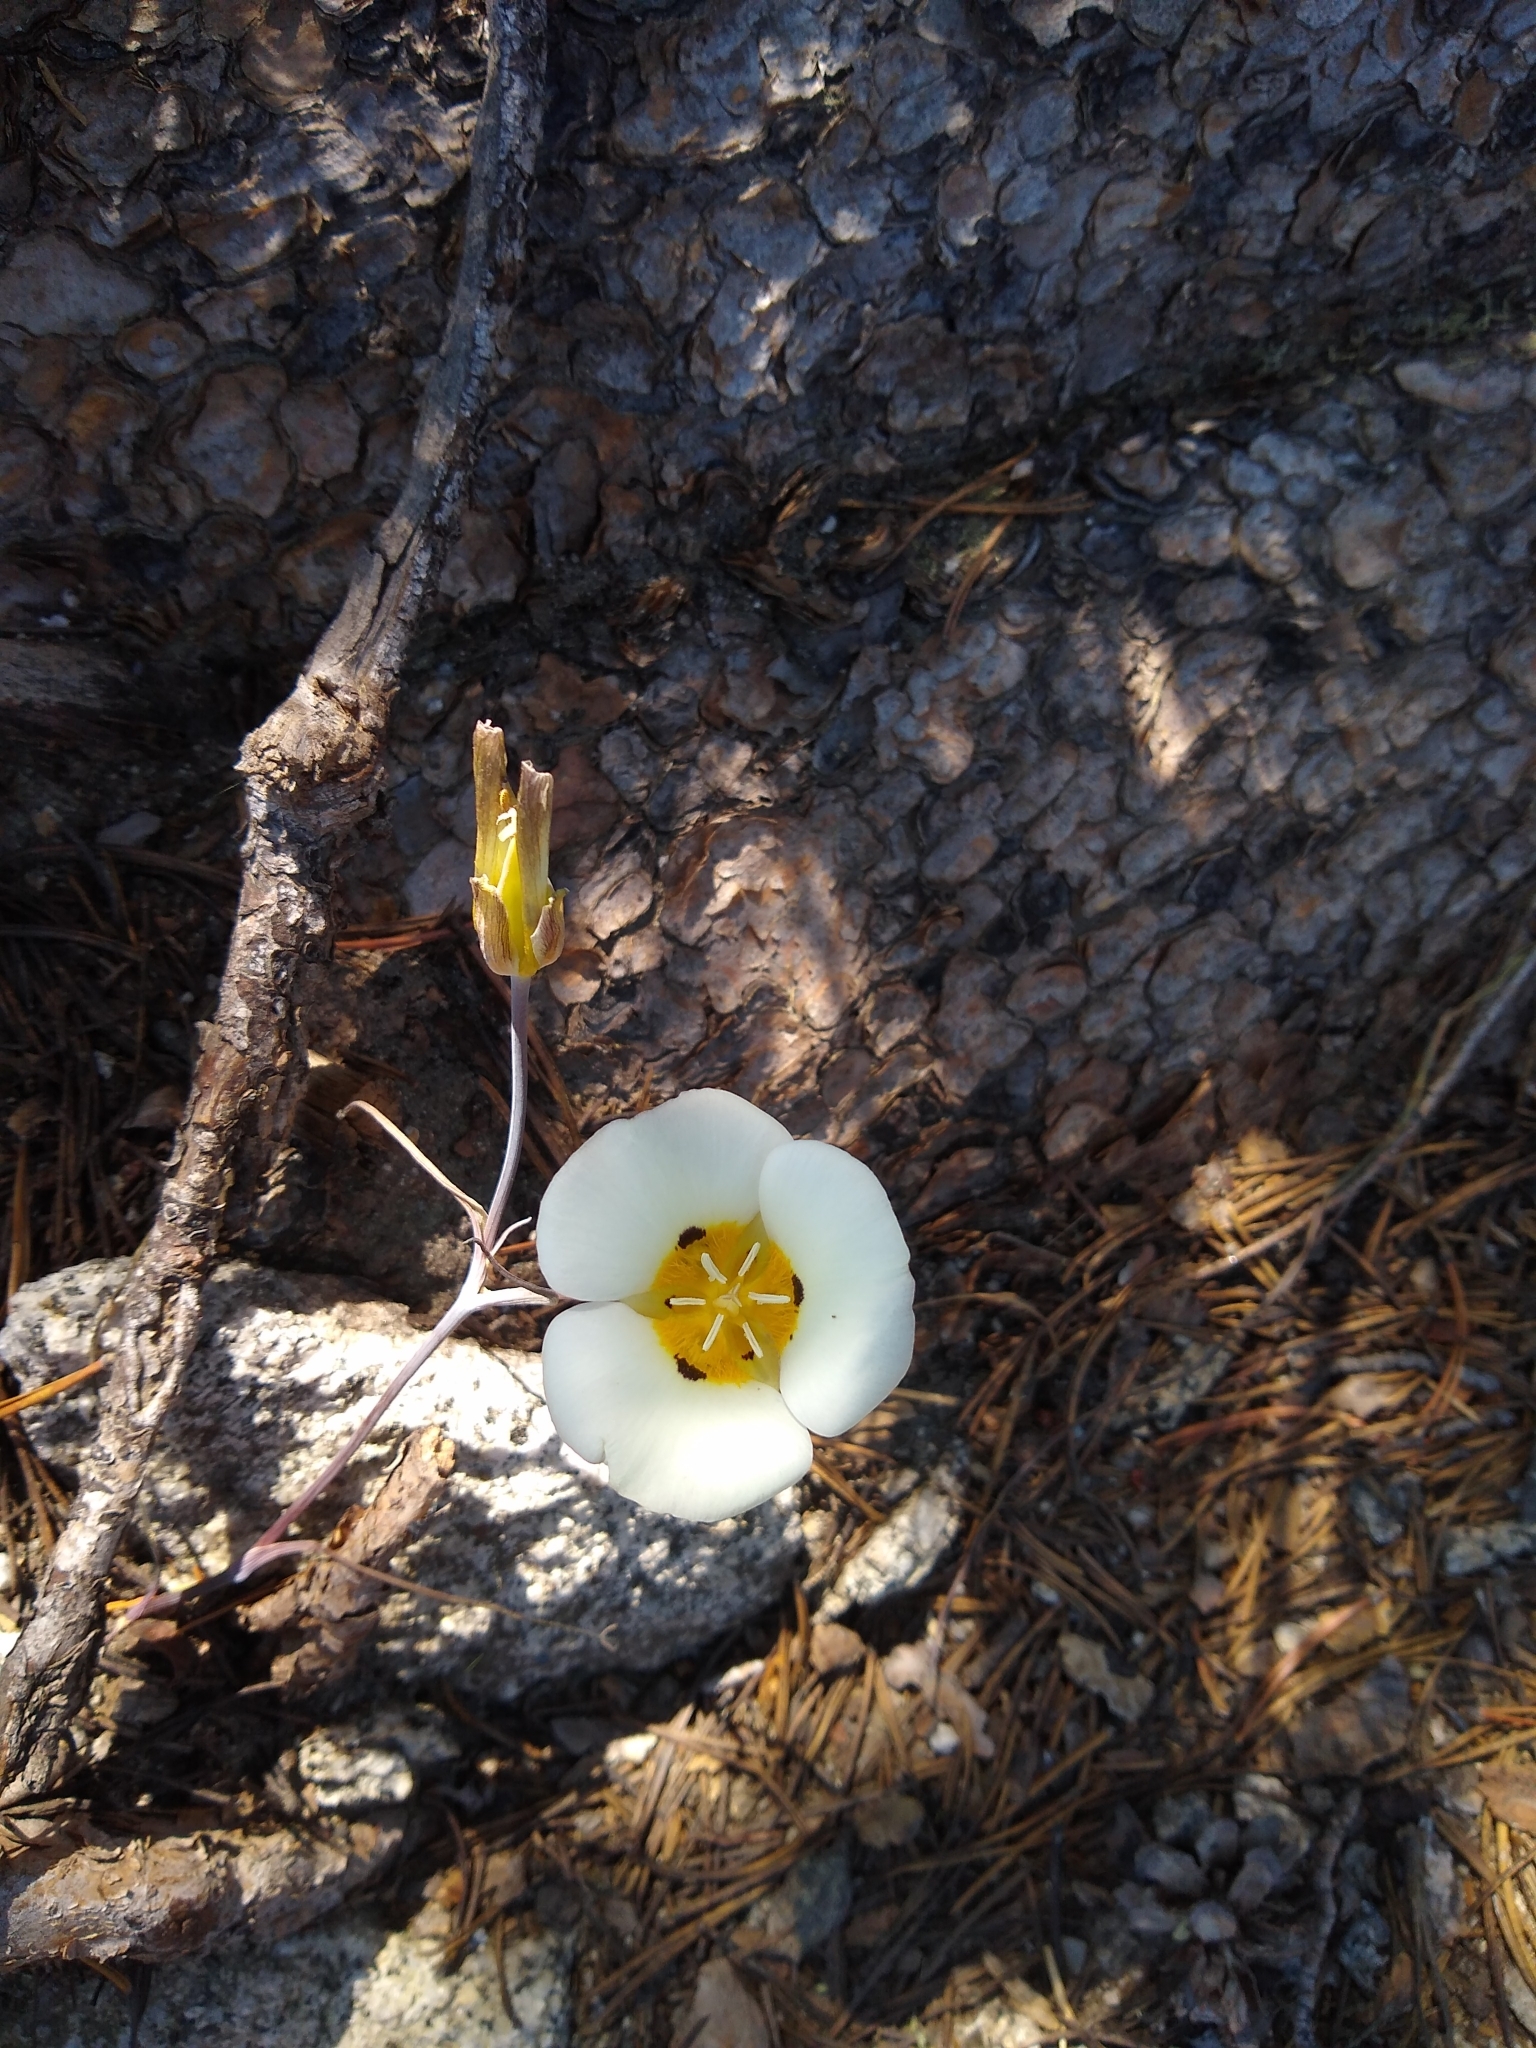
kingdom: Plantae
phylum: Tracheophyta
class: Liliopsida
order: Liliales
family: Liliaceae
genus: Calochortus
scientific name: Calochortus leichtlinii
